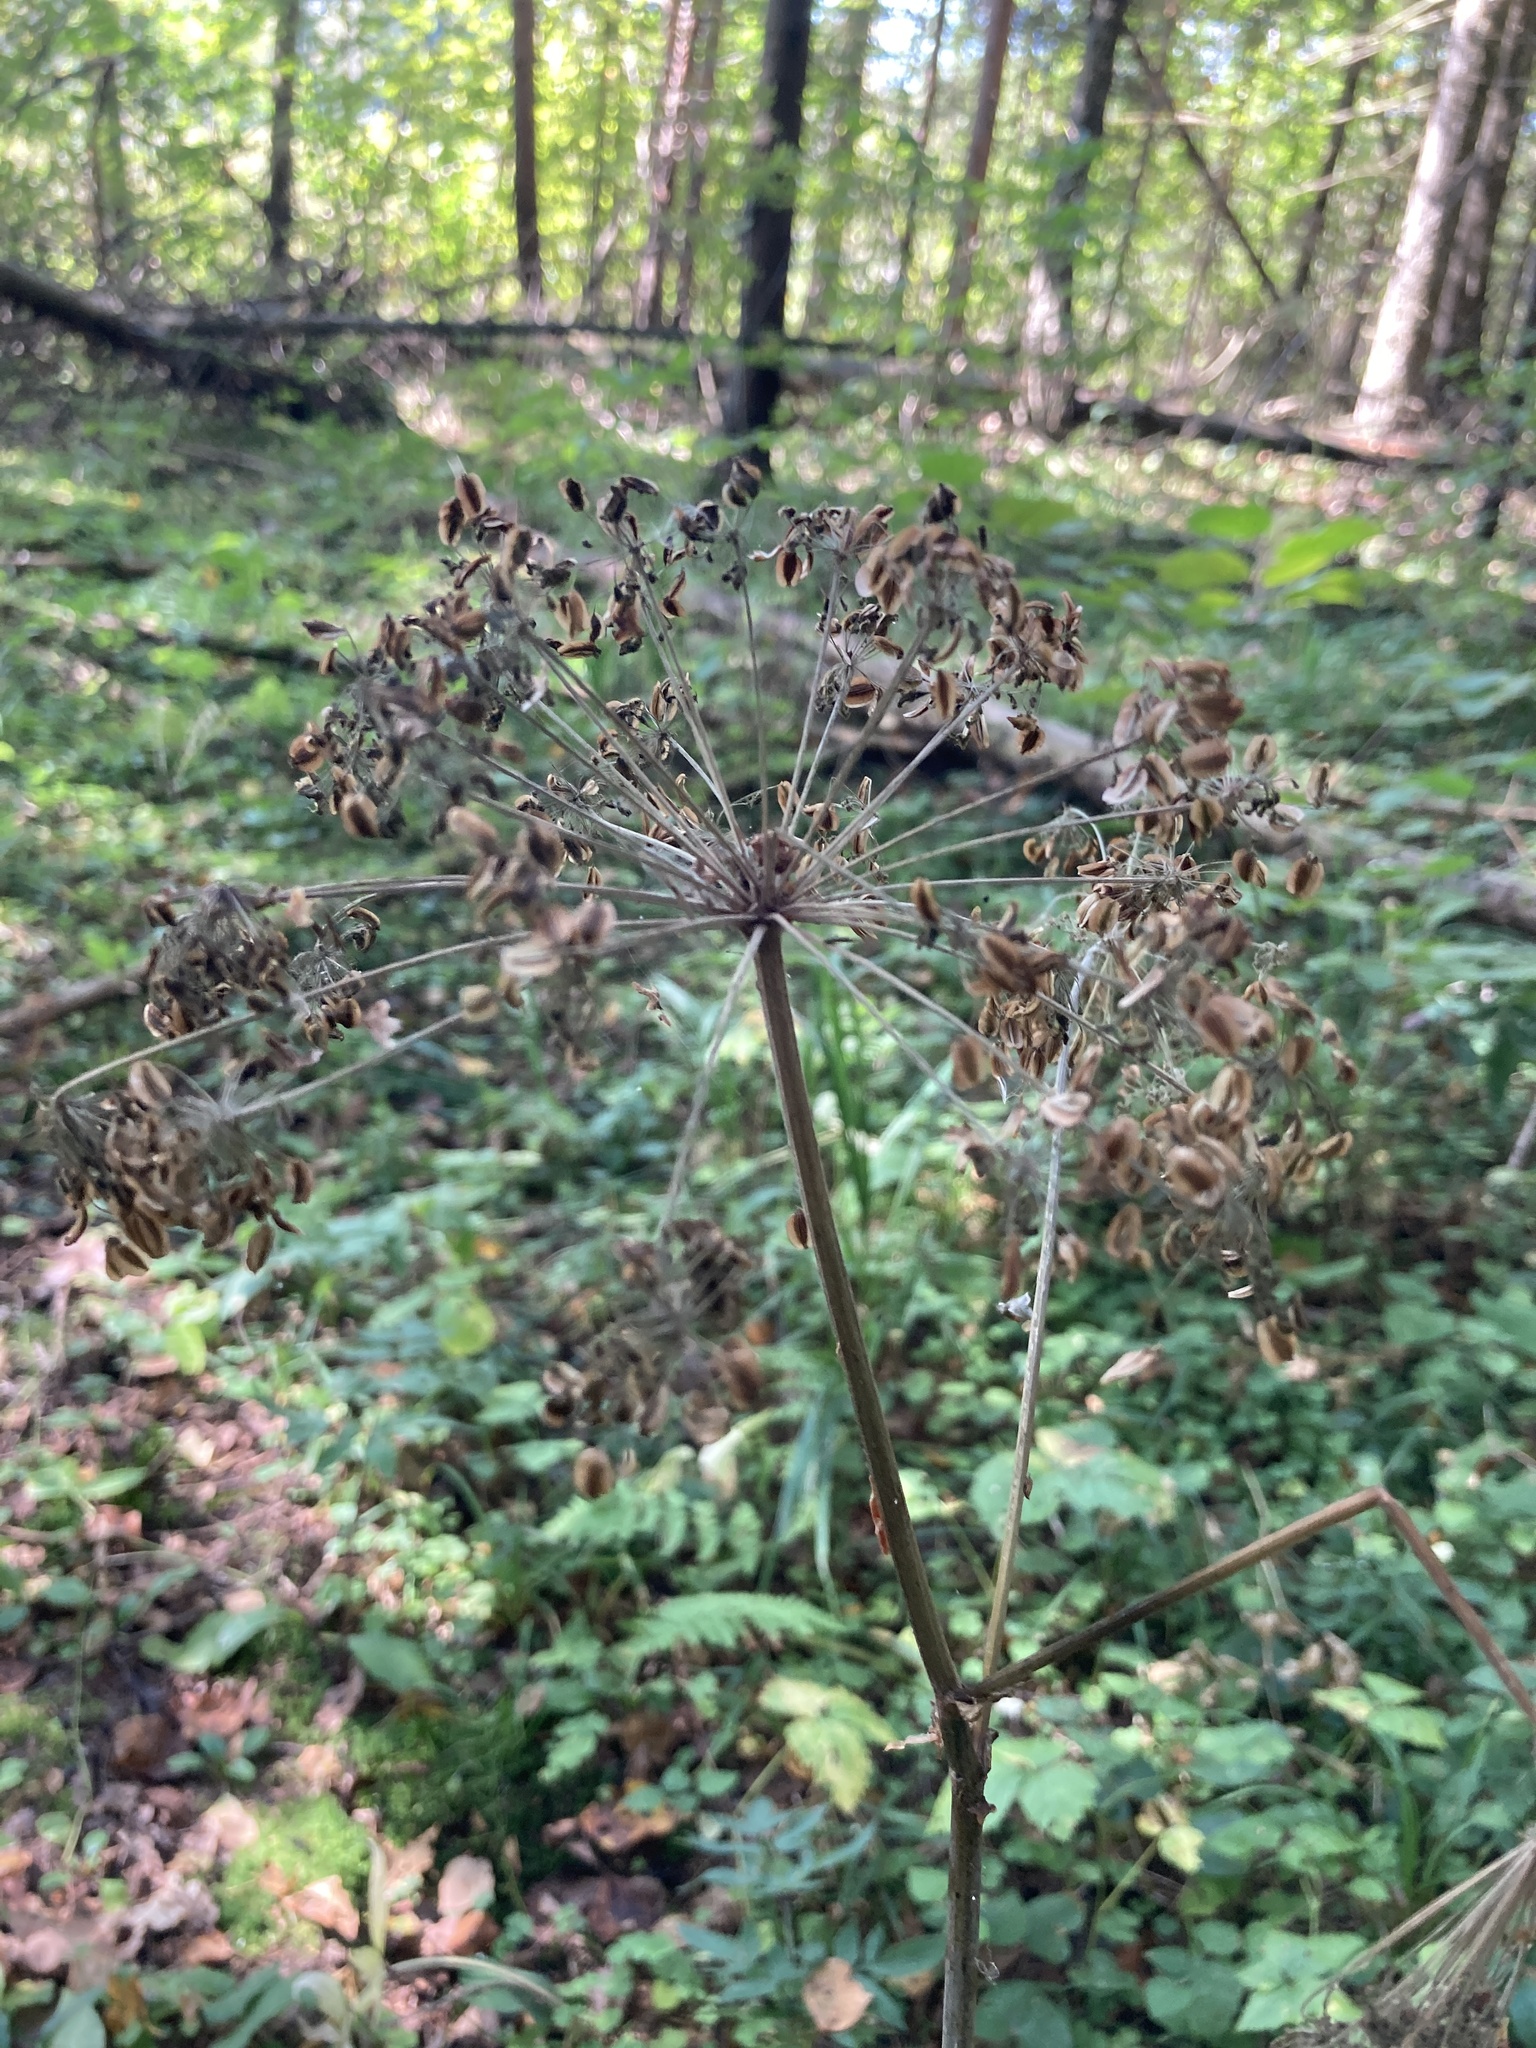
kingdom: Plantae
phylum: Tracheophyta
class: Magnoliopsida
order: Apiales
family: Apiaceae
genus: Angelica
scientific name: Angelica sylvestris
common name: Wild angelica
